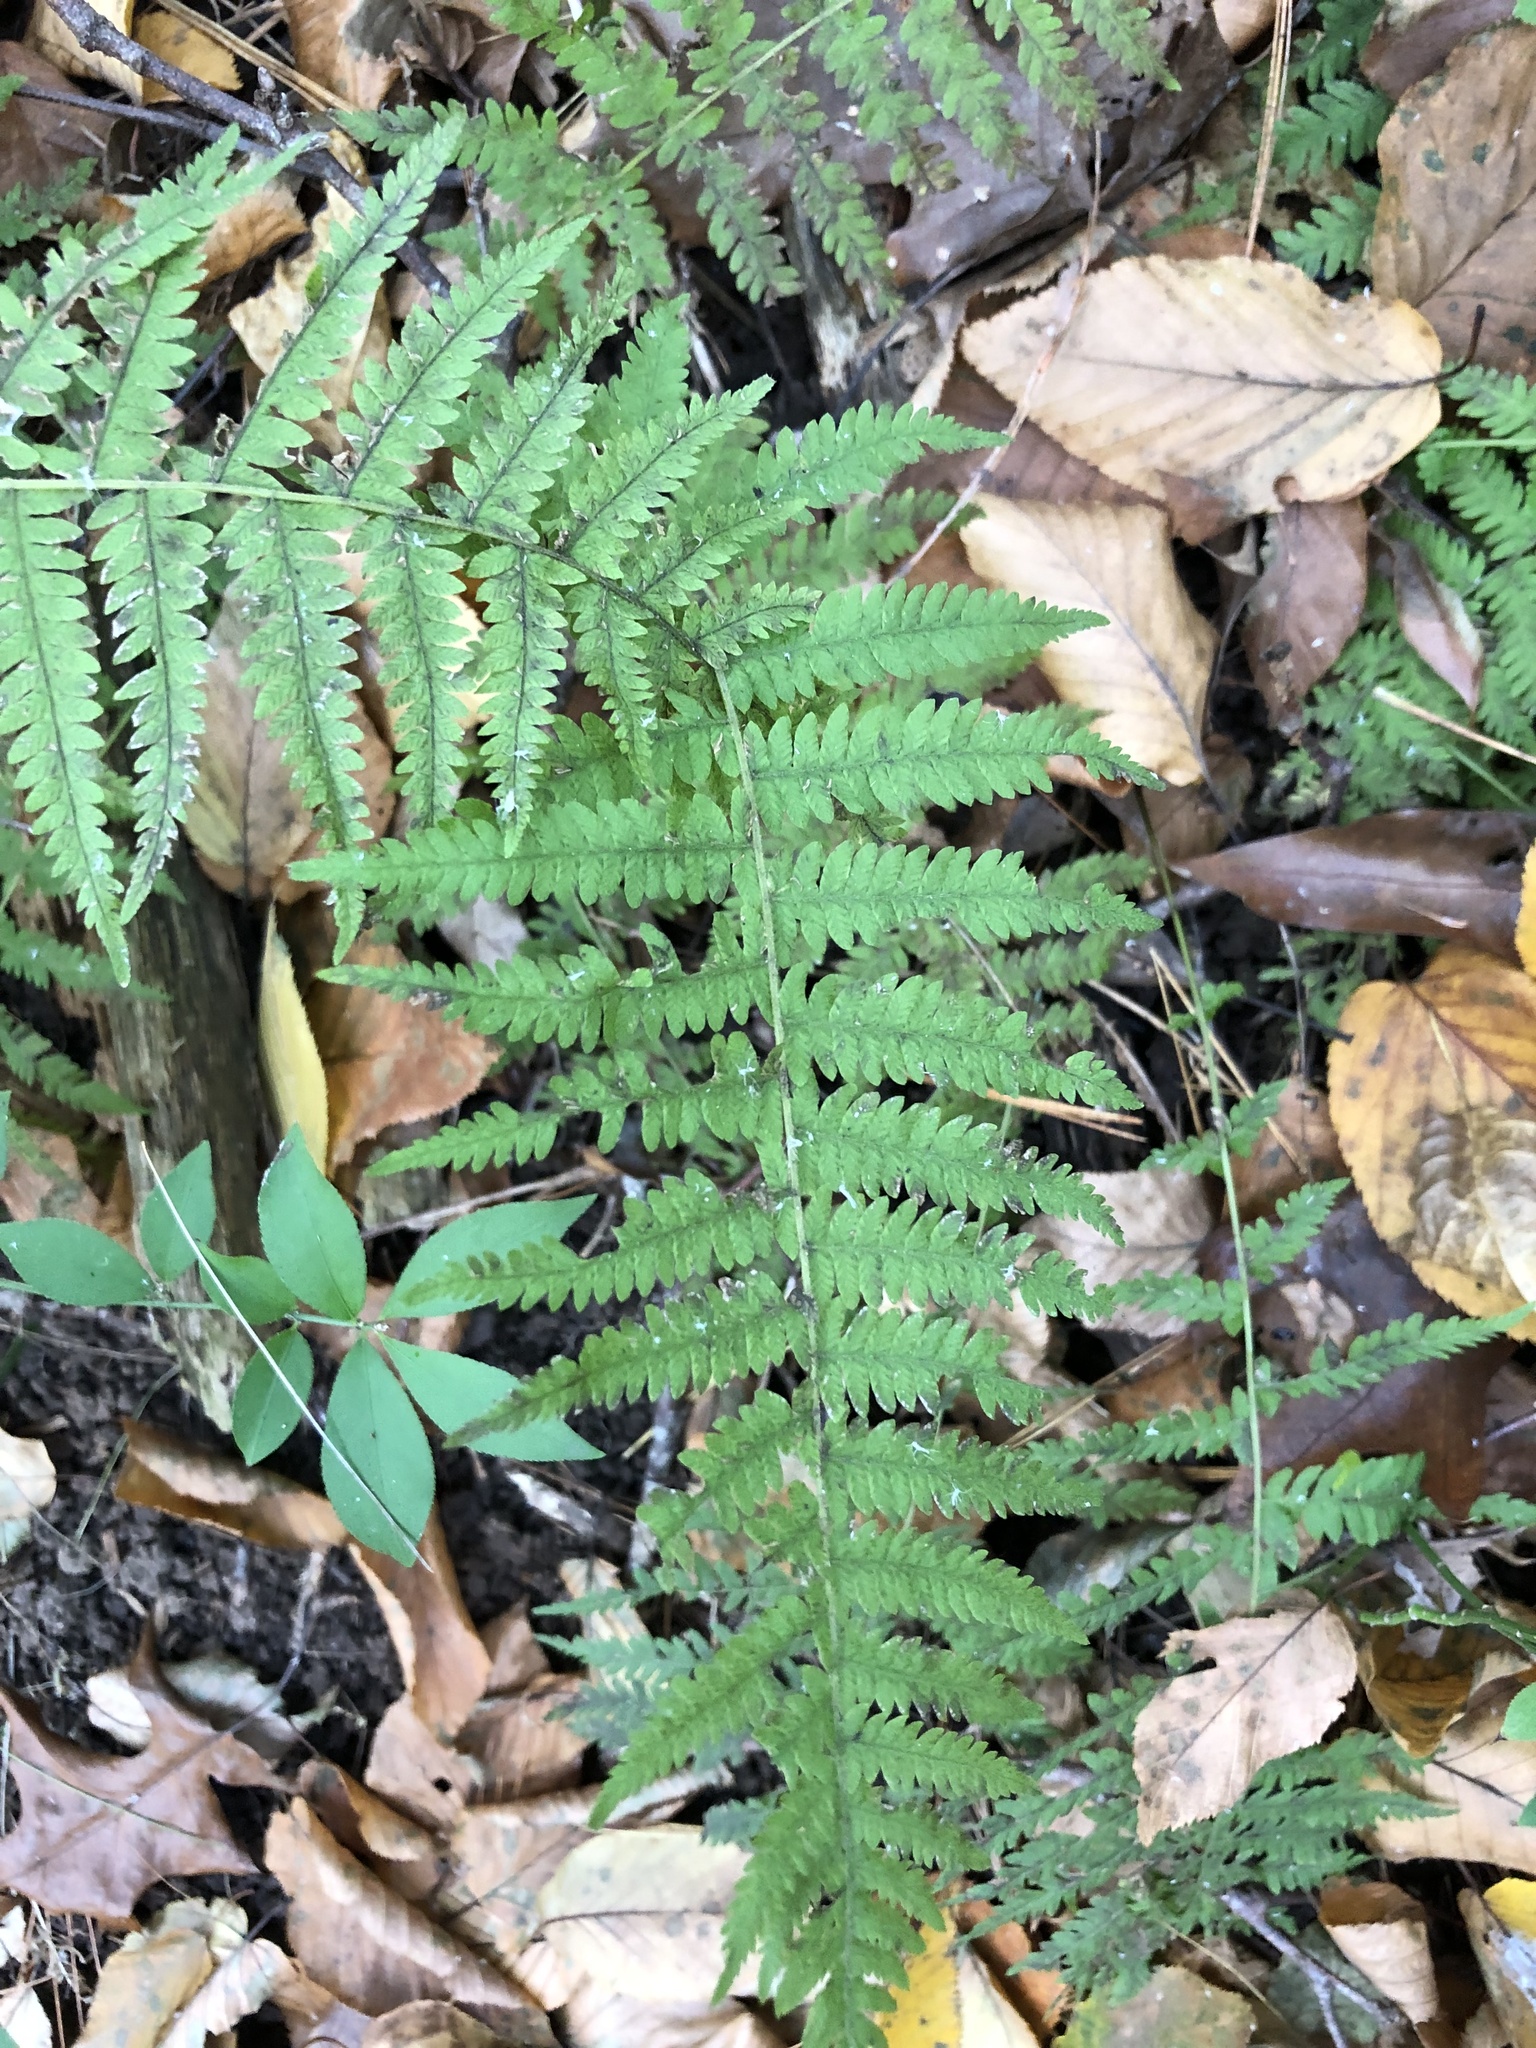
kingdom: Plantae
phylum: Tracheophyta
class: Polypodiopsida
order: Polypodiales
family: Thelypteridaceae
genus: Amauropelta
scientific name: Amauropelta noveboracensis
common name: New york fern
